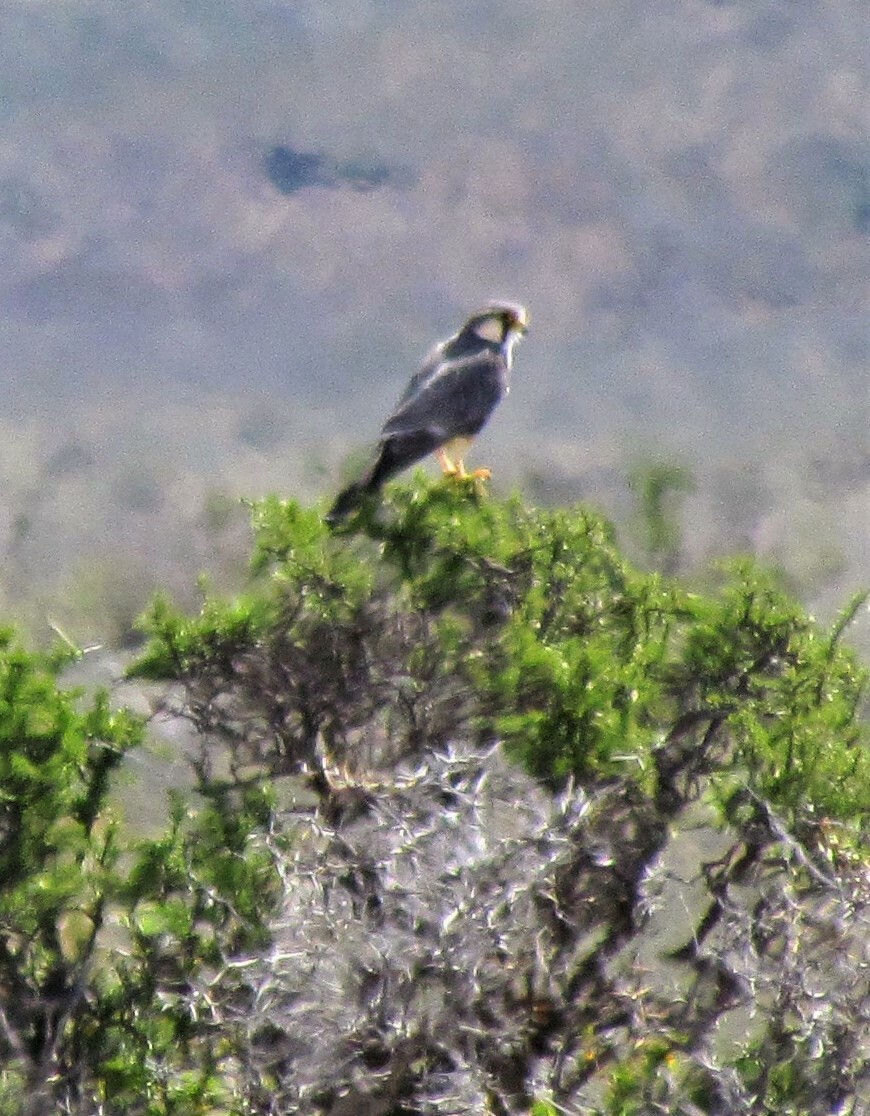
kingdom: Animalia
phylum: Chordata
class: Aves
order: Falconiformes
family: Falconidae
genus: Falco
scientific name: Falco femoralis
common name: Aplomado falcon
